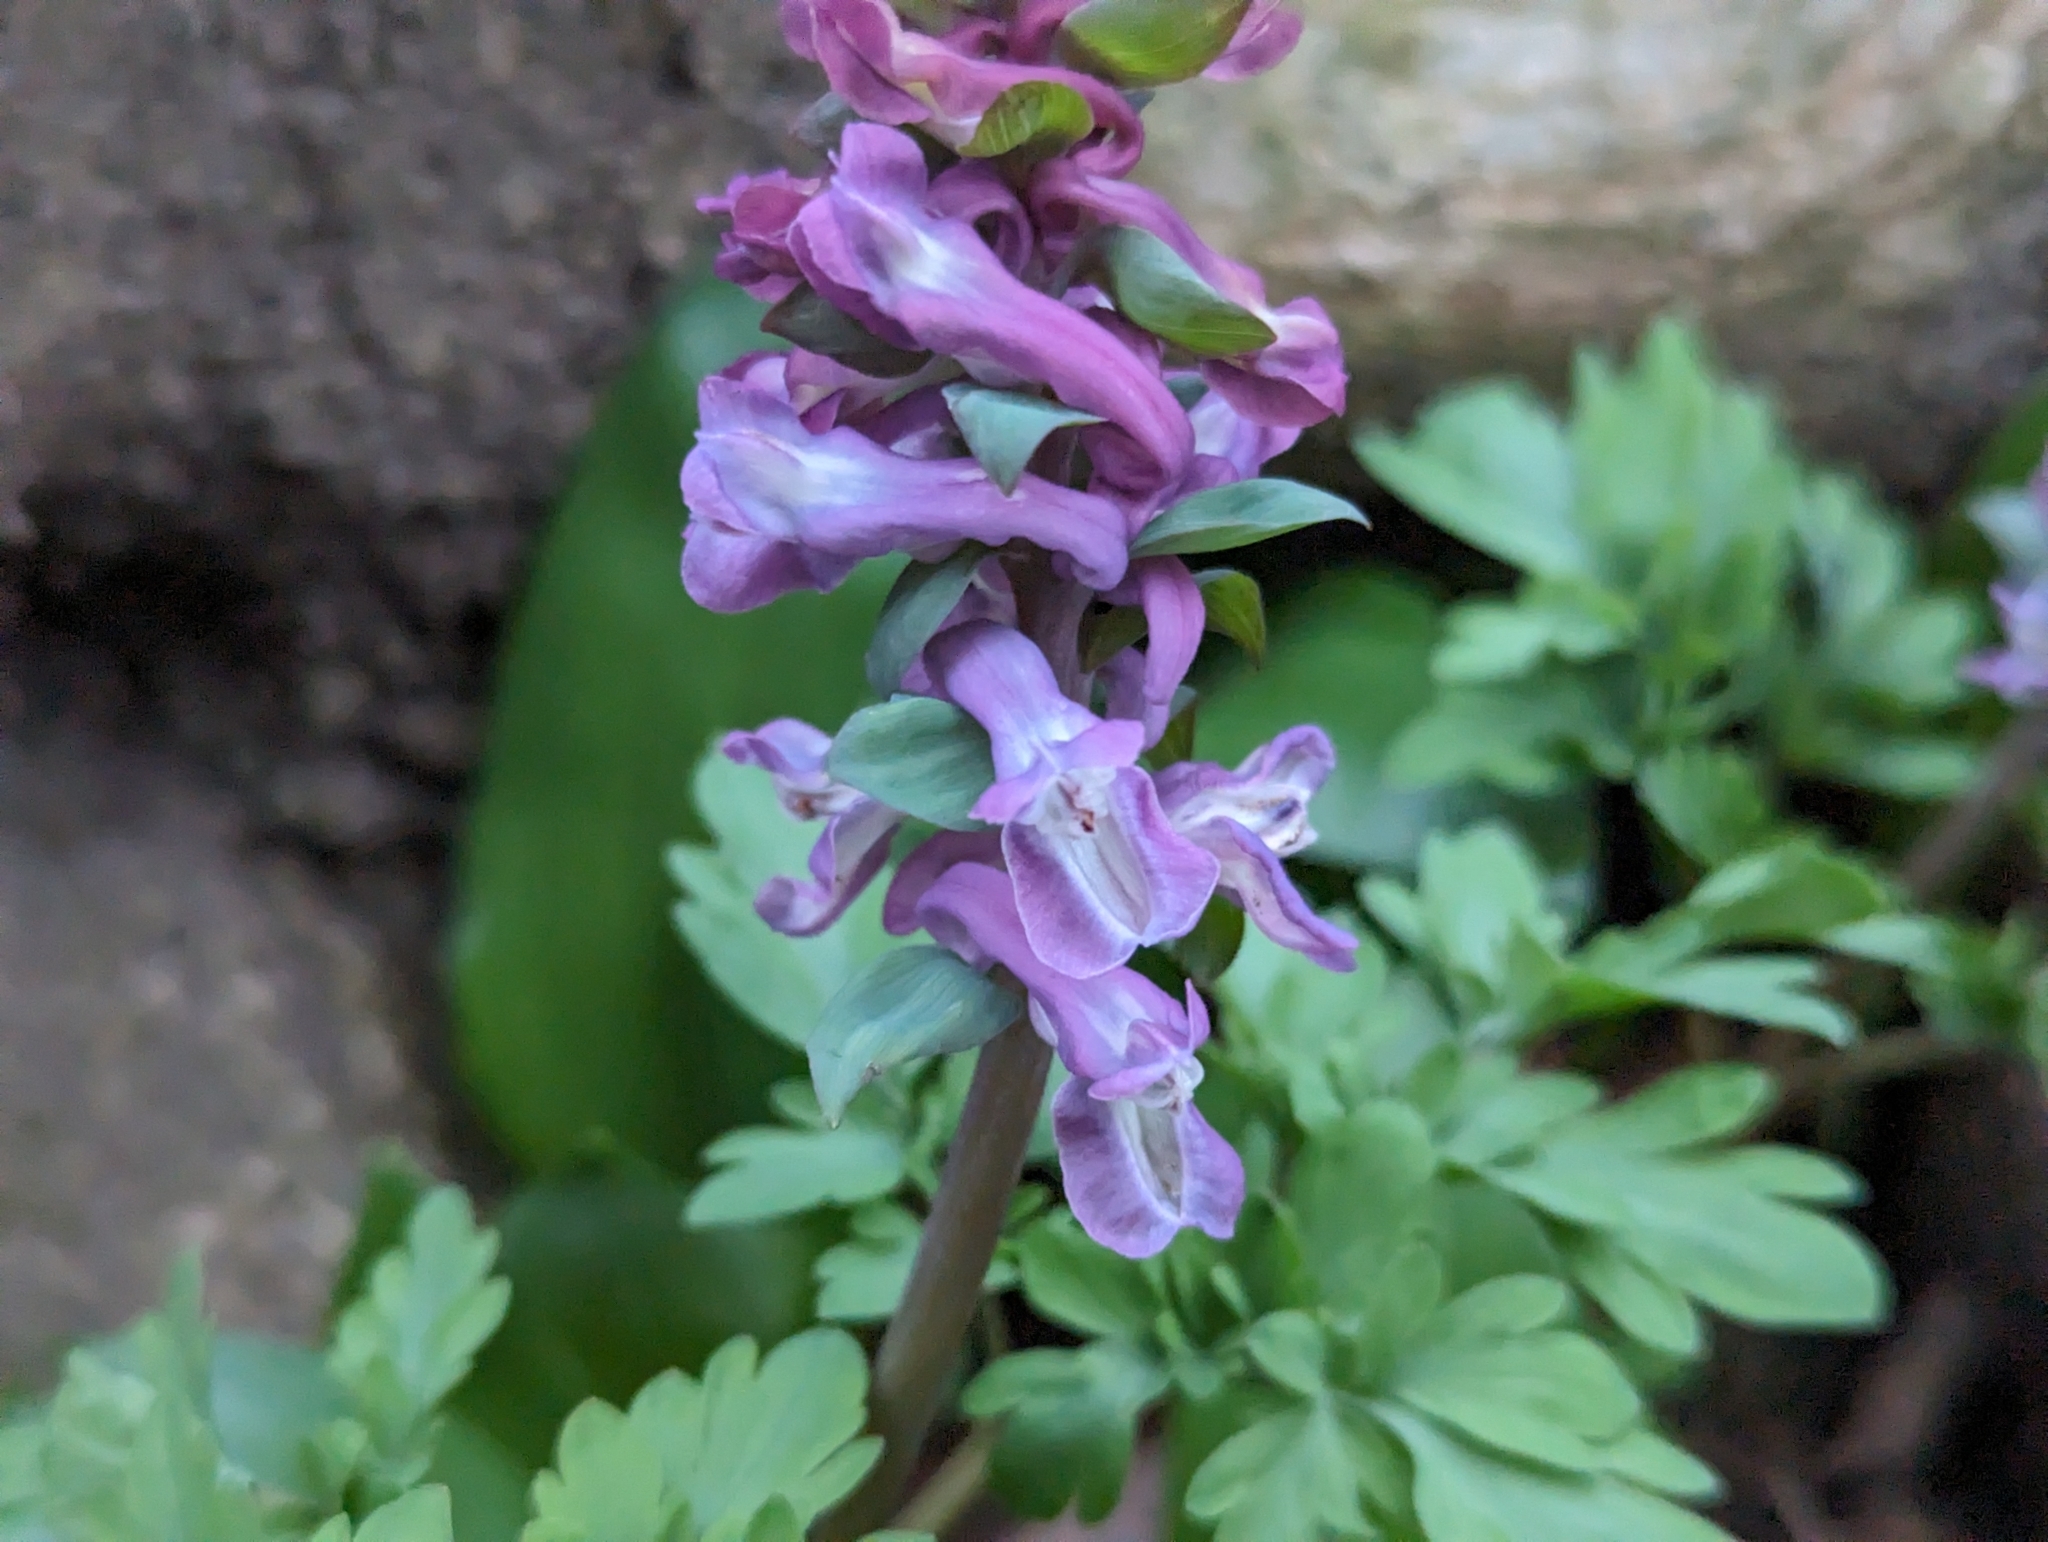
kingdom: Plantae
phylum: Tracheophyta
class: Magnoliopsida
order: Ranunculales
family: Papaveraceae
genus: Corydalis
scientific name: Corydalis cava
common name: Hollowroot
